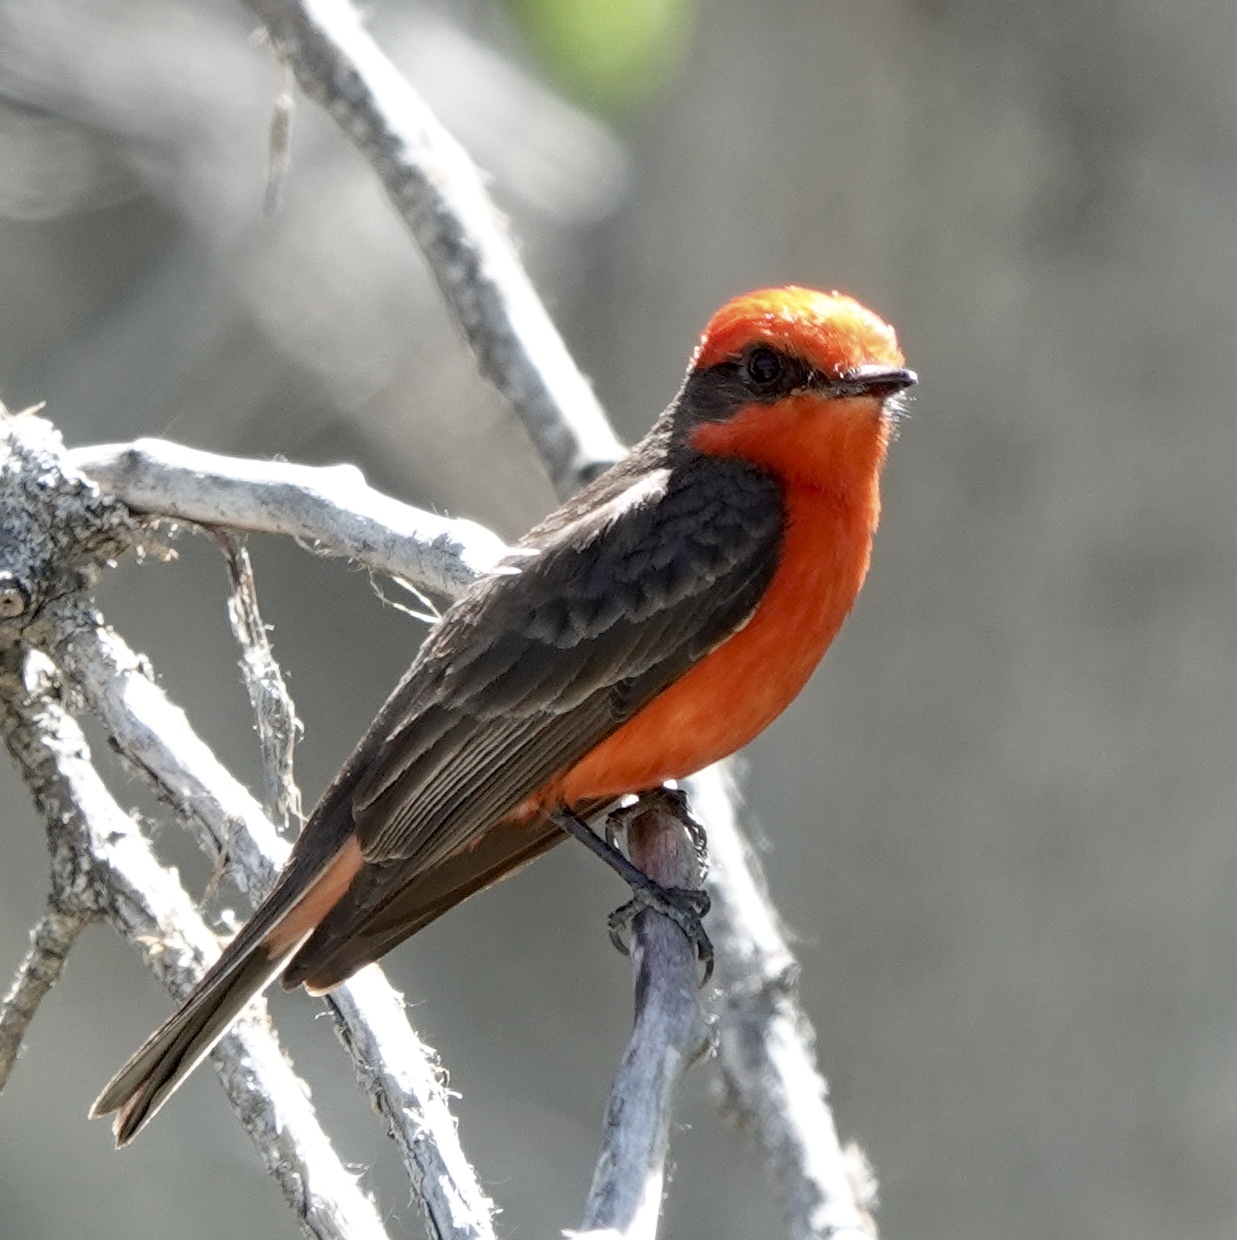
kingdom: Animalia
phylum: Chordata
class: Aves
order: Passeriformes
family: Tyrannidae
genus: Pyrocephalus
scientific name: Pyrocephalus rubinus
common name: Vermilion flycatcher
